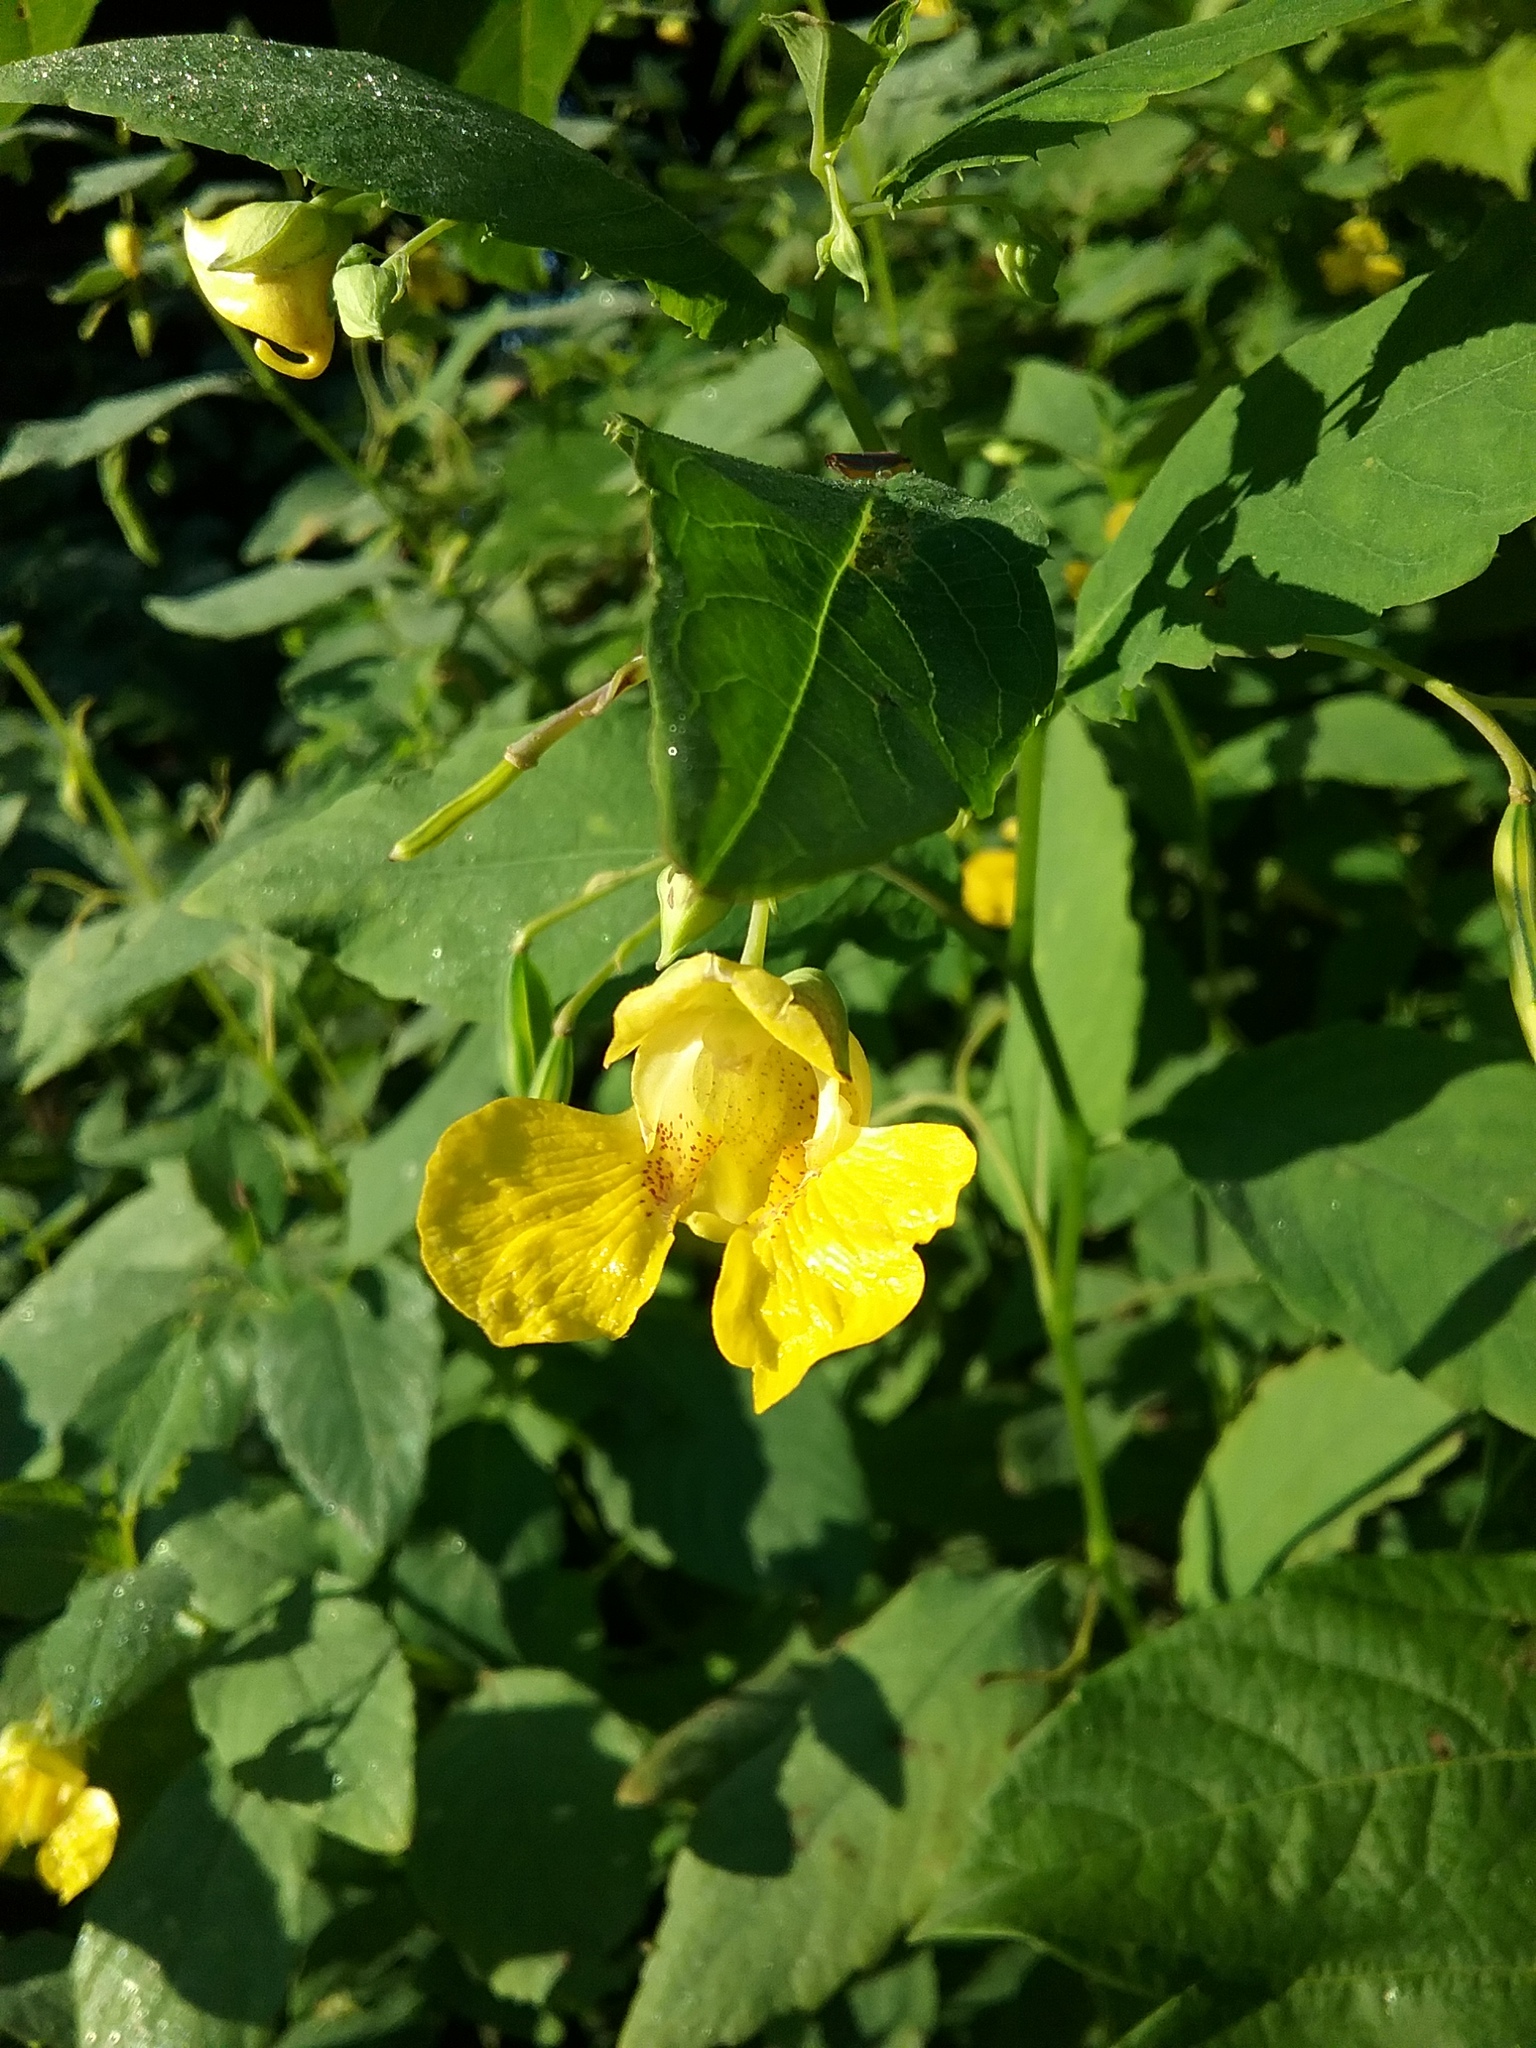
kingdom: Plantae
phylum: Tracheophyta
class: Magnoliopsida
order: Ericales
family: Balsaminaceae
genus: Impatiens
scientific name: Impatiens pallida
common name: Pale snapweed
